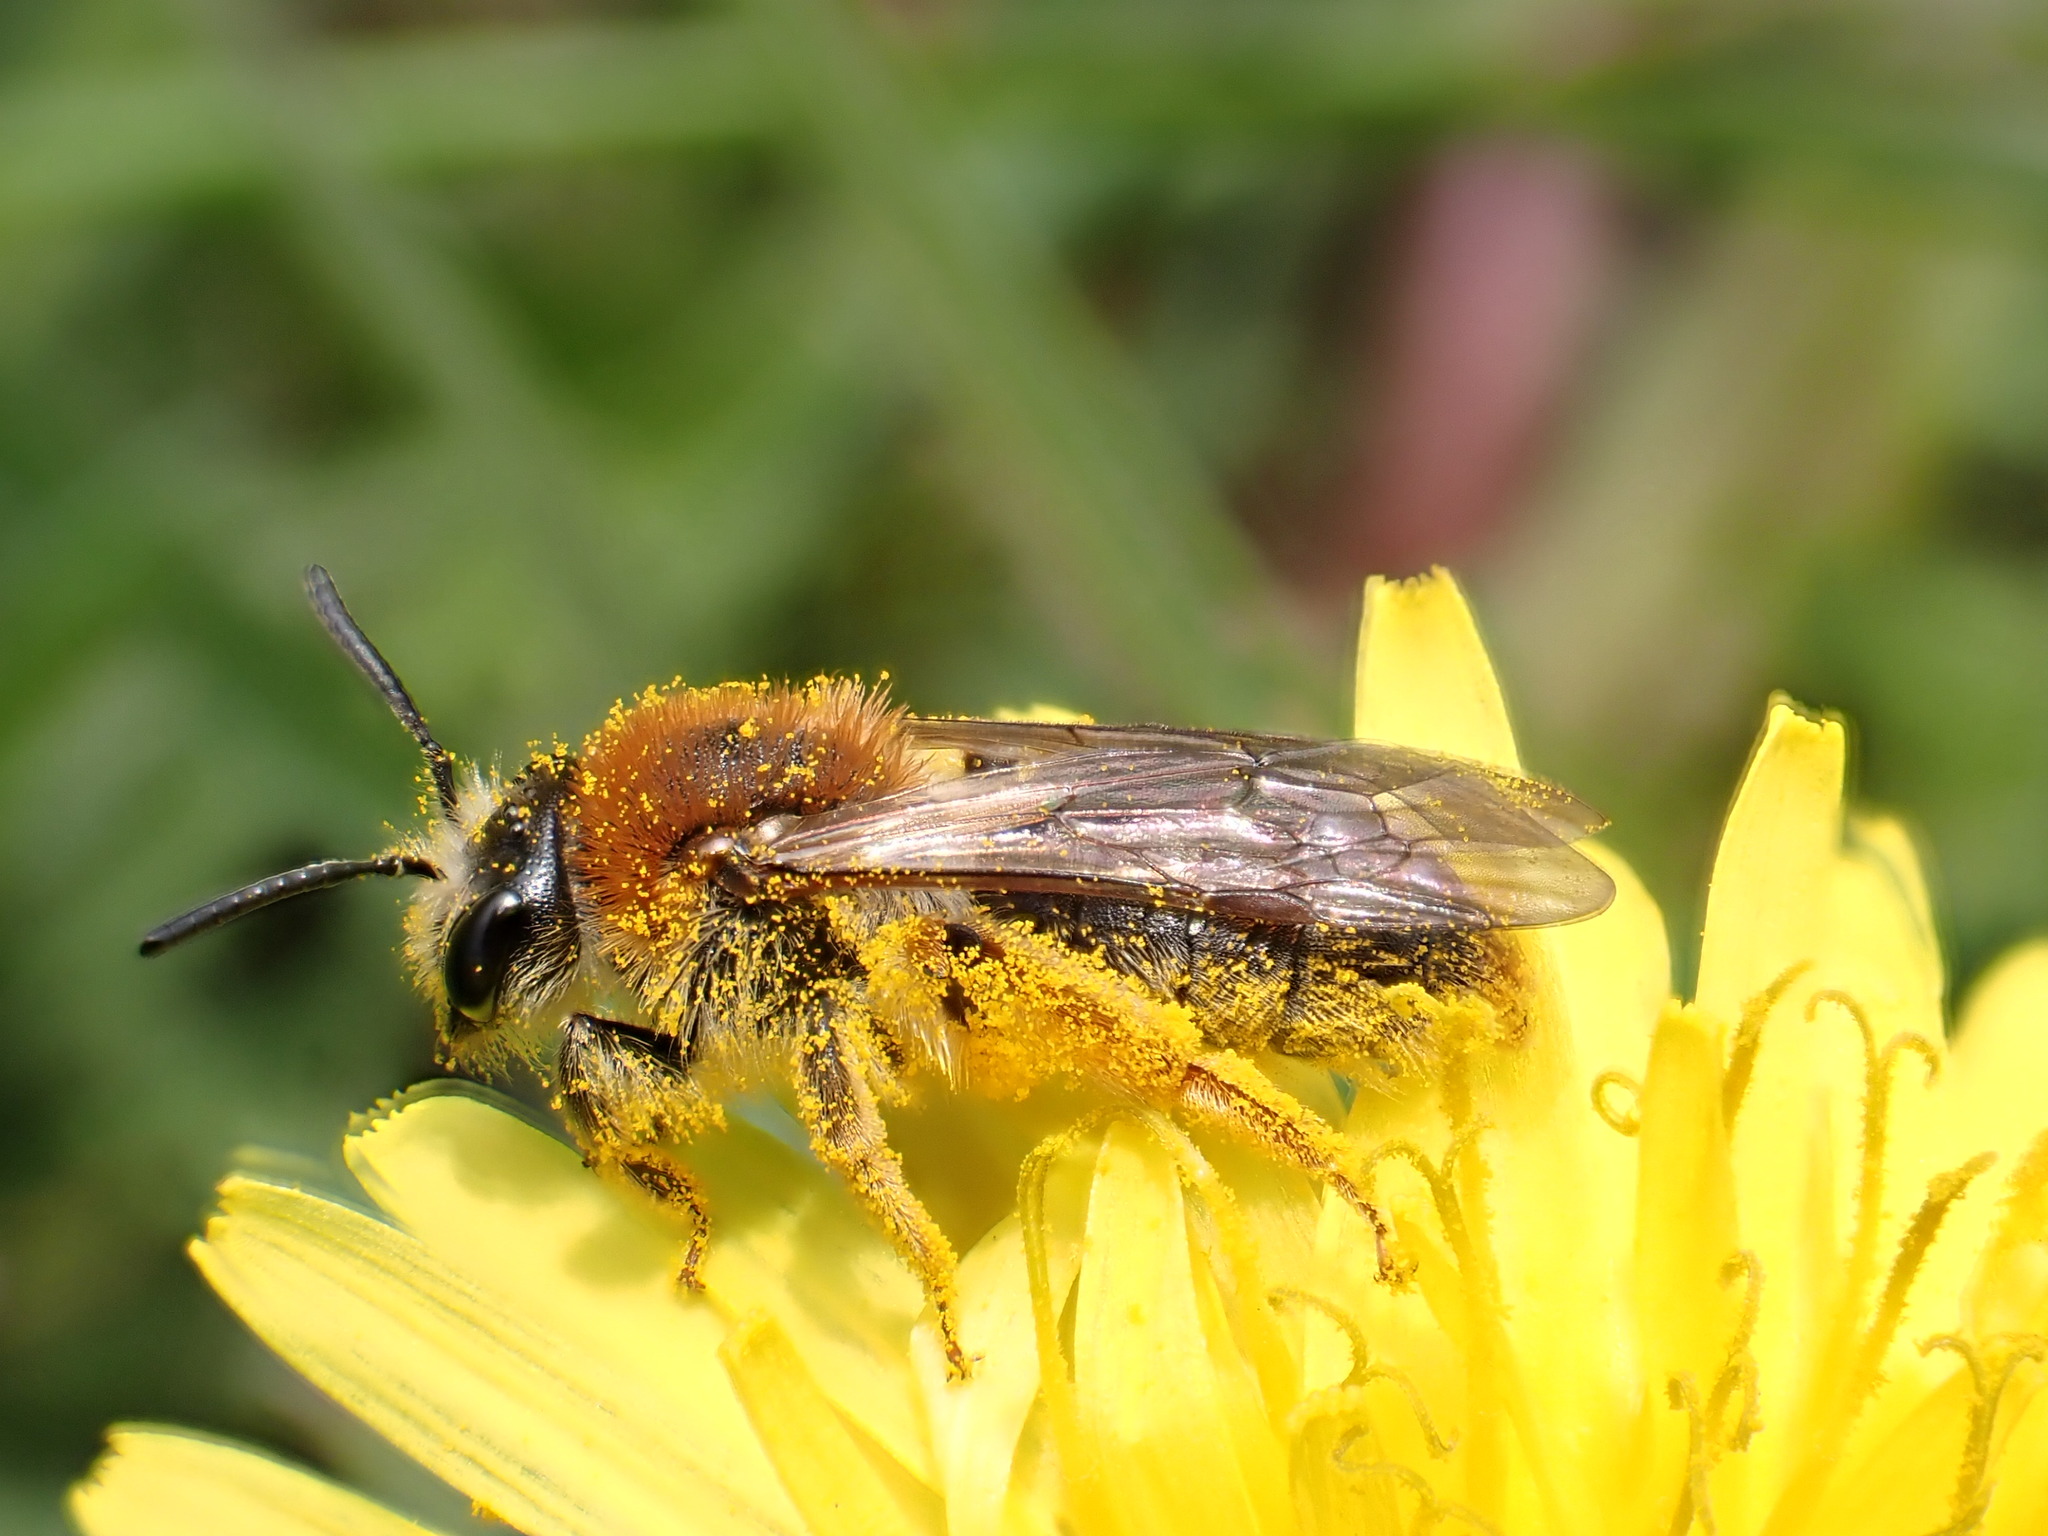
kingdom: Animalia
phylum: Arthropoda
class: Insecta
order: Hymenoptera
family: Andrenidae
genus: Andrena
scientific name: Andrena haemorrhoa
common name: Early mining bee
